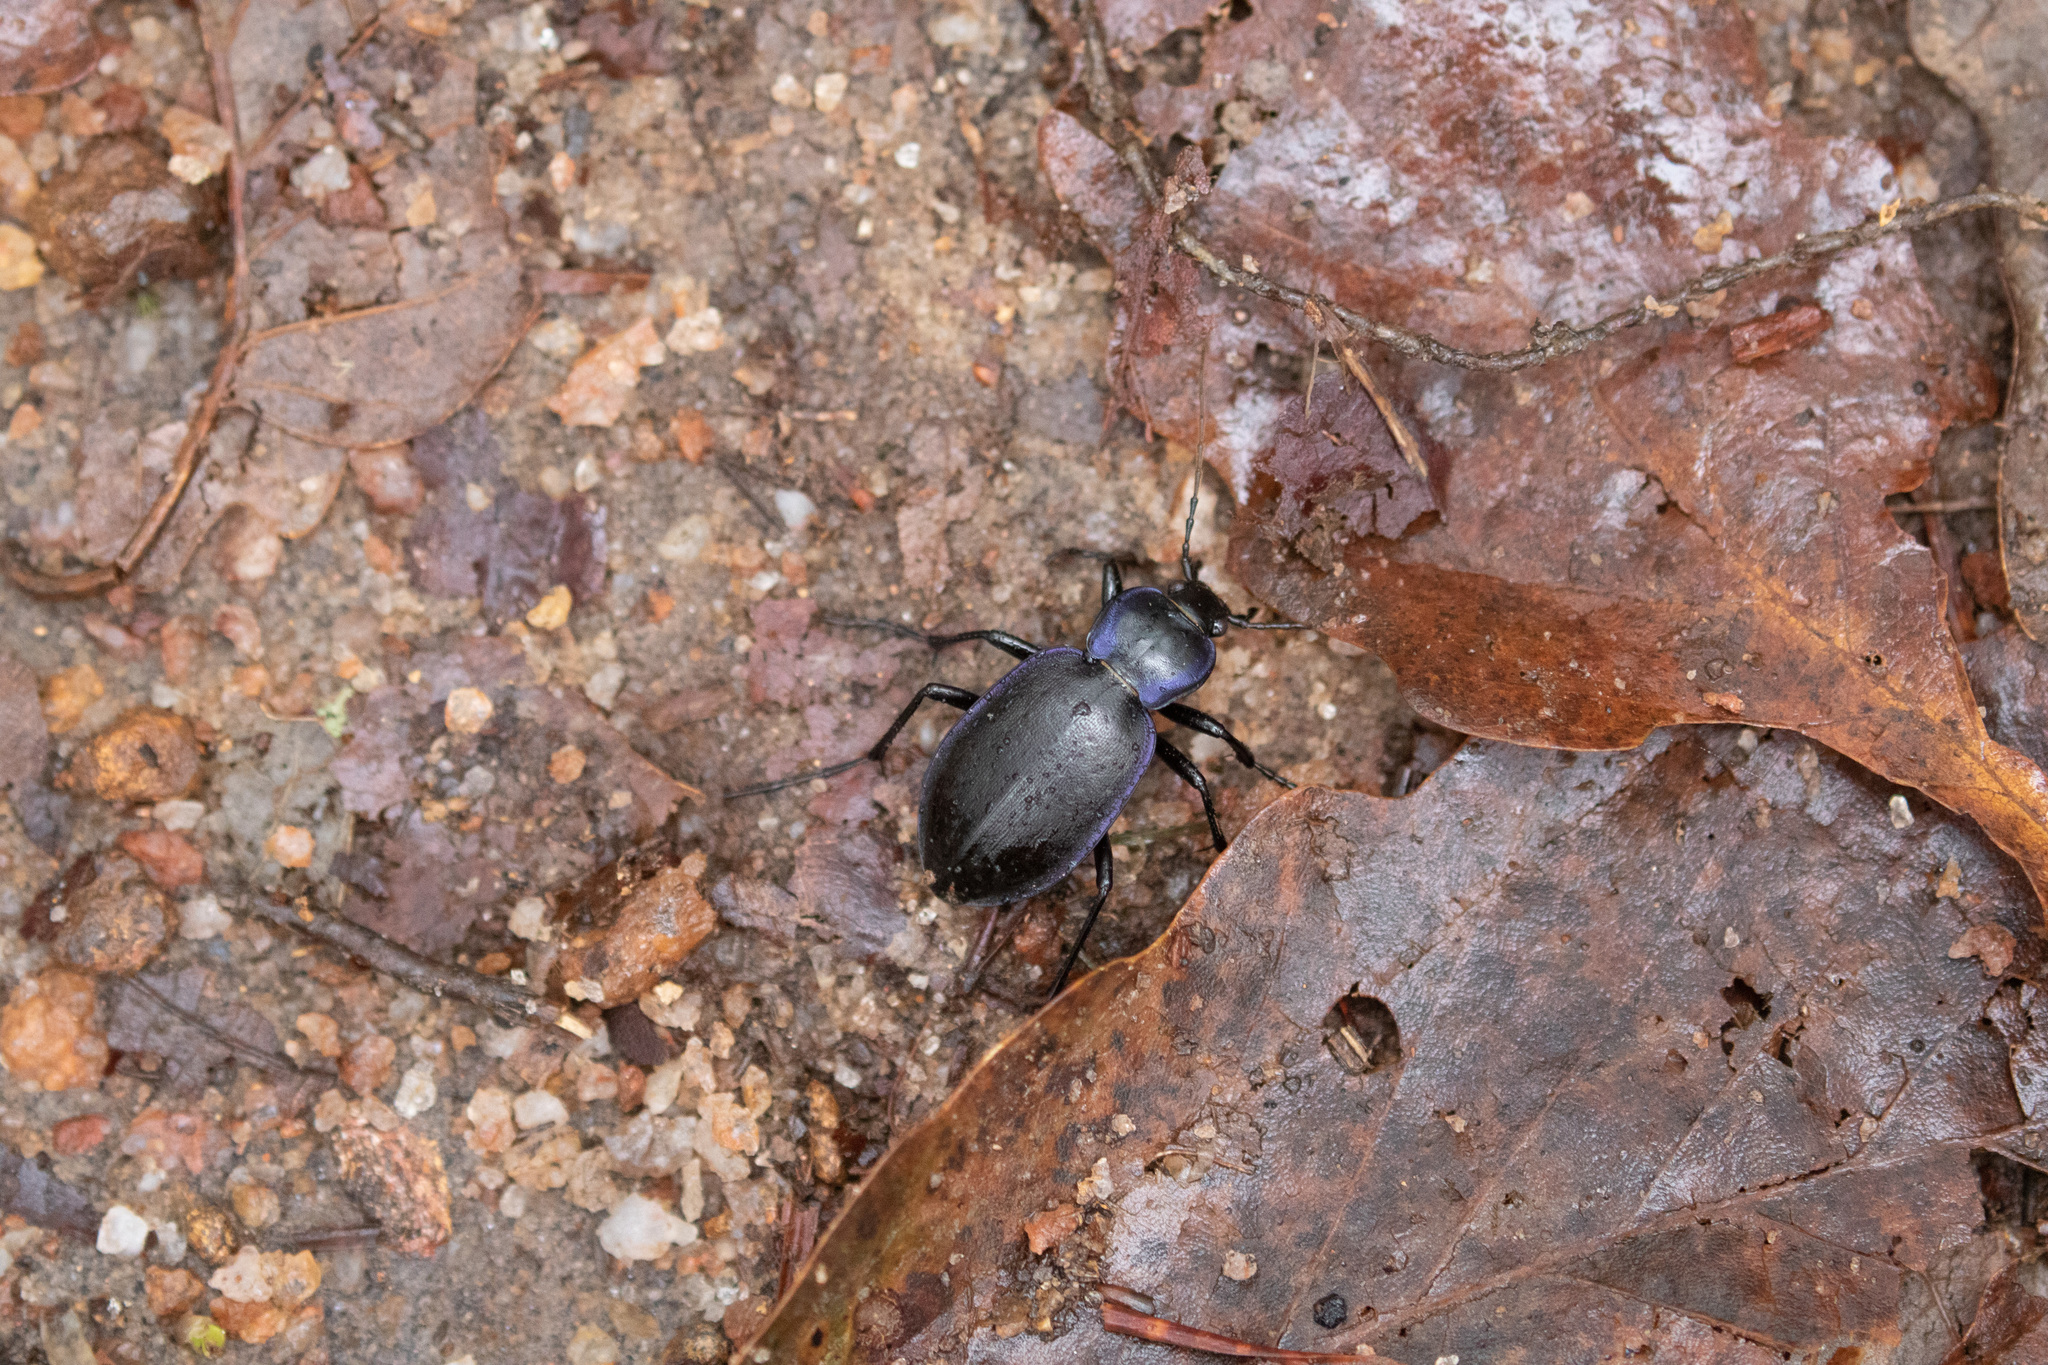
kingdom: Animalia
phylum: Arthropoda
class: Insecta
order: Coleoptera
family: Carabidae
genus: Carabus
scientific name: Carabus sylvosus
